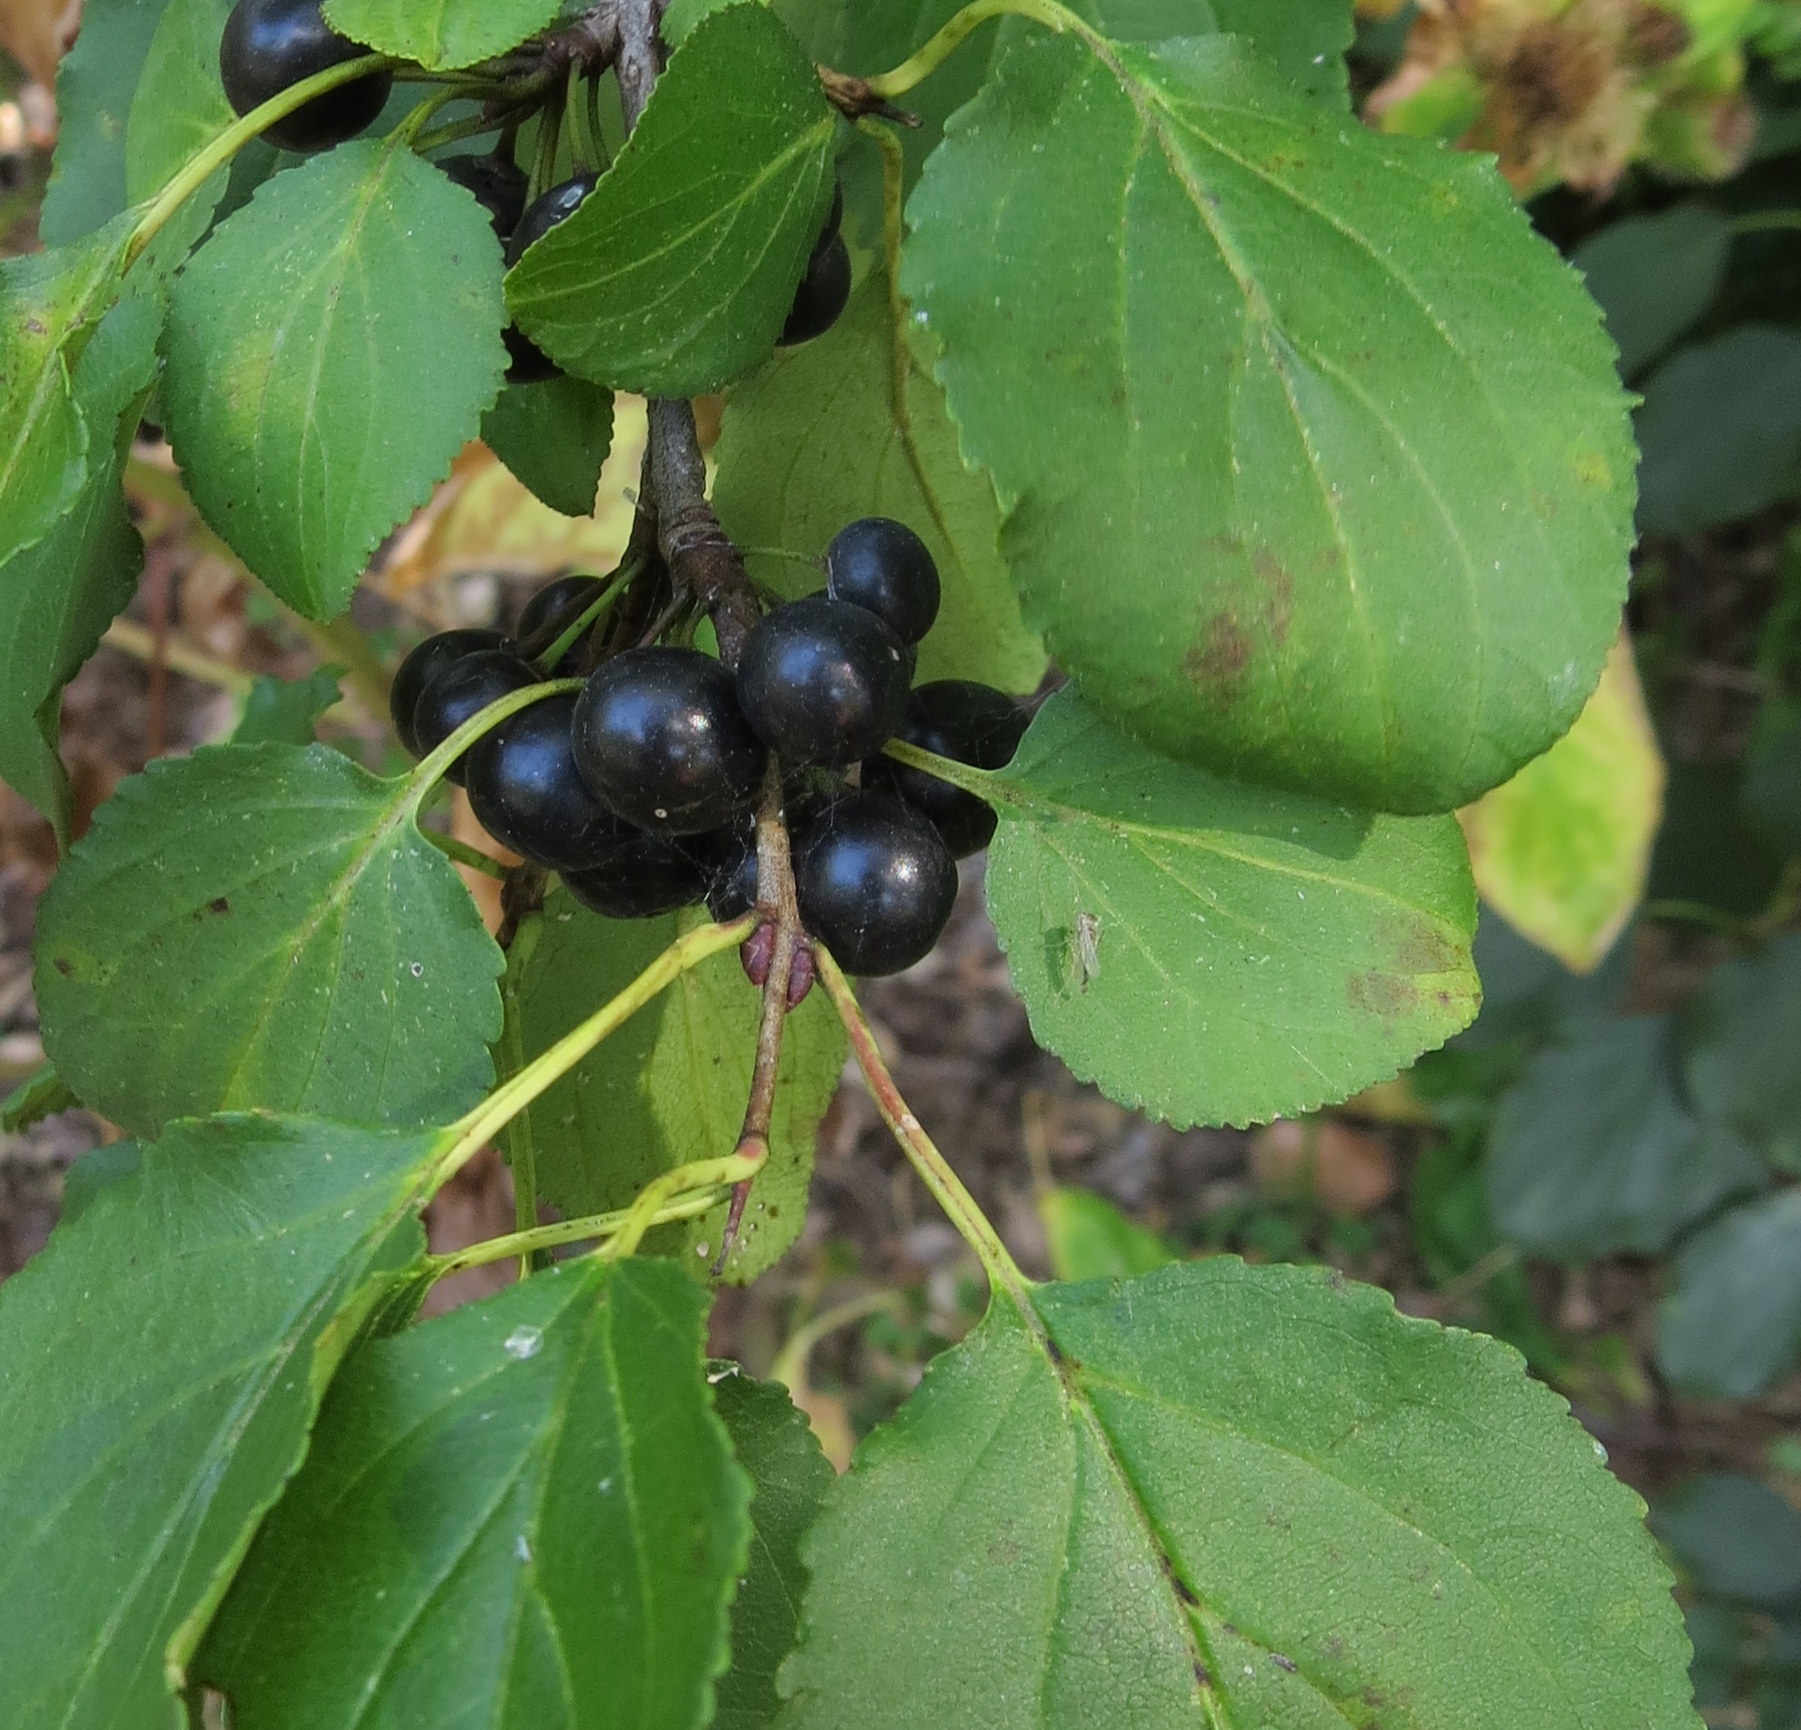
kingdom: Plantae
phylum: Tracheophyta
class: Magnoliopsida
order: Rosales
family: Rhamnaceae
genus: Rhamnus
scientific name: Rhamnus cathartica
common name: Common buckthorn
